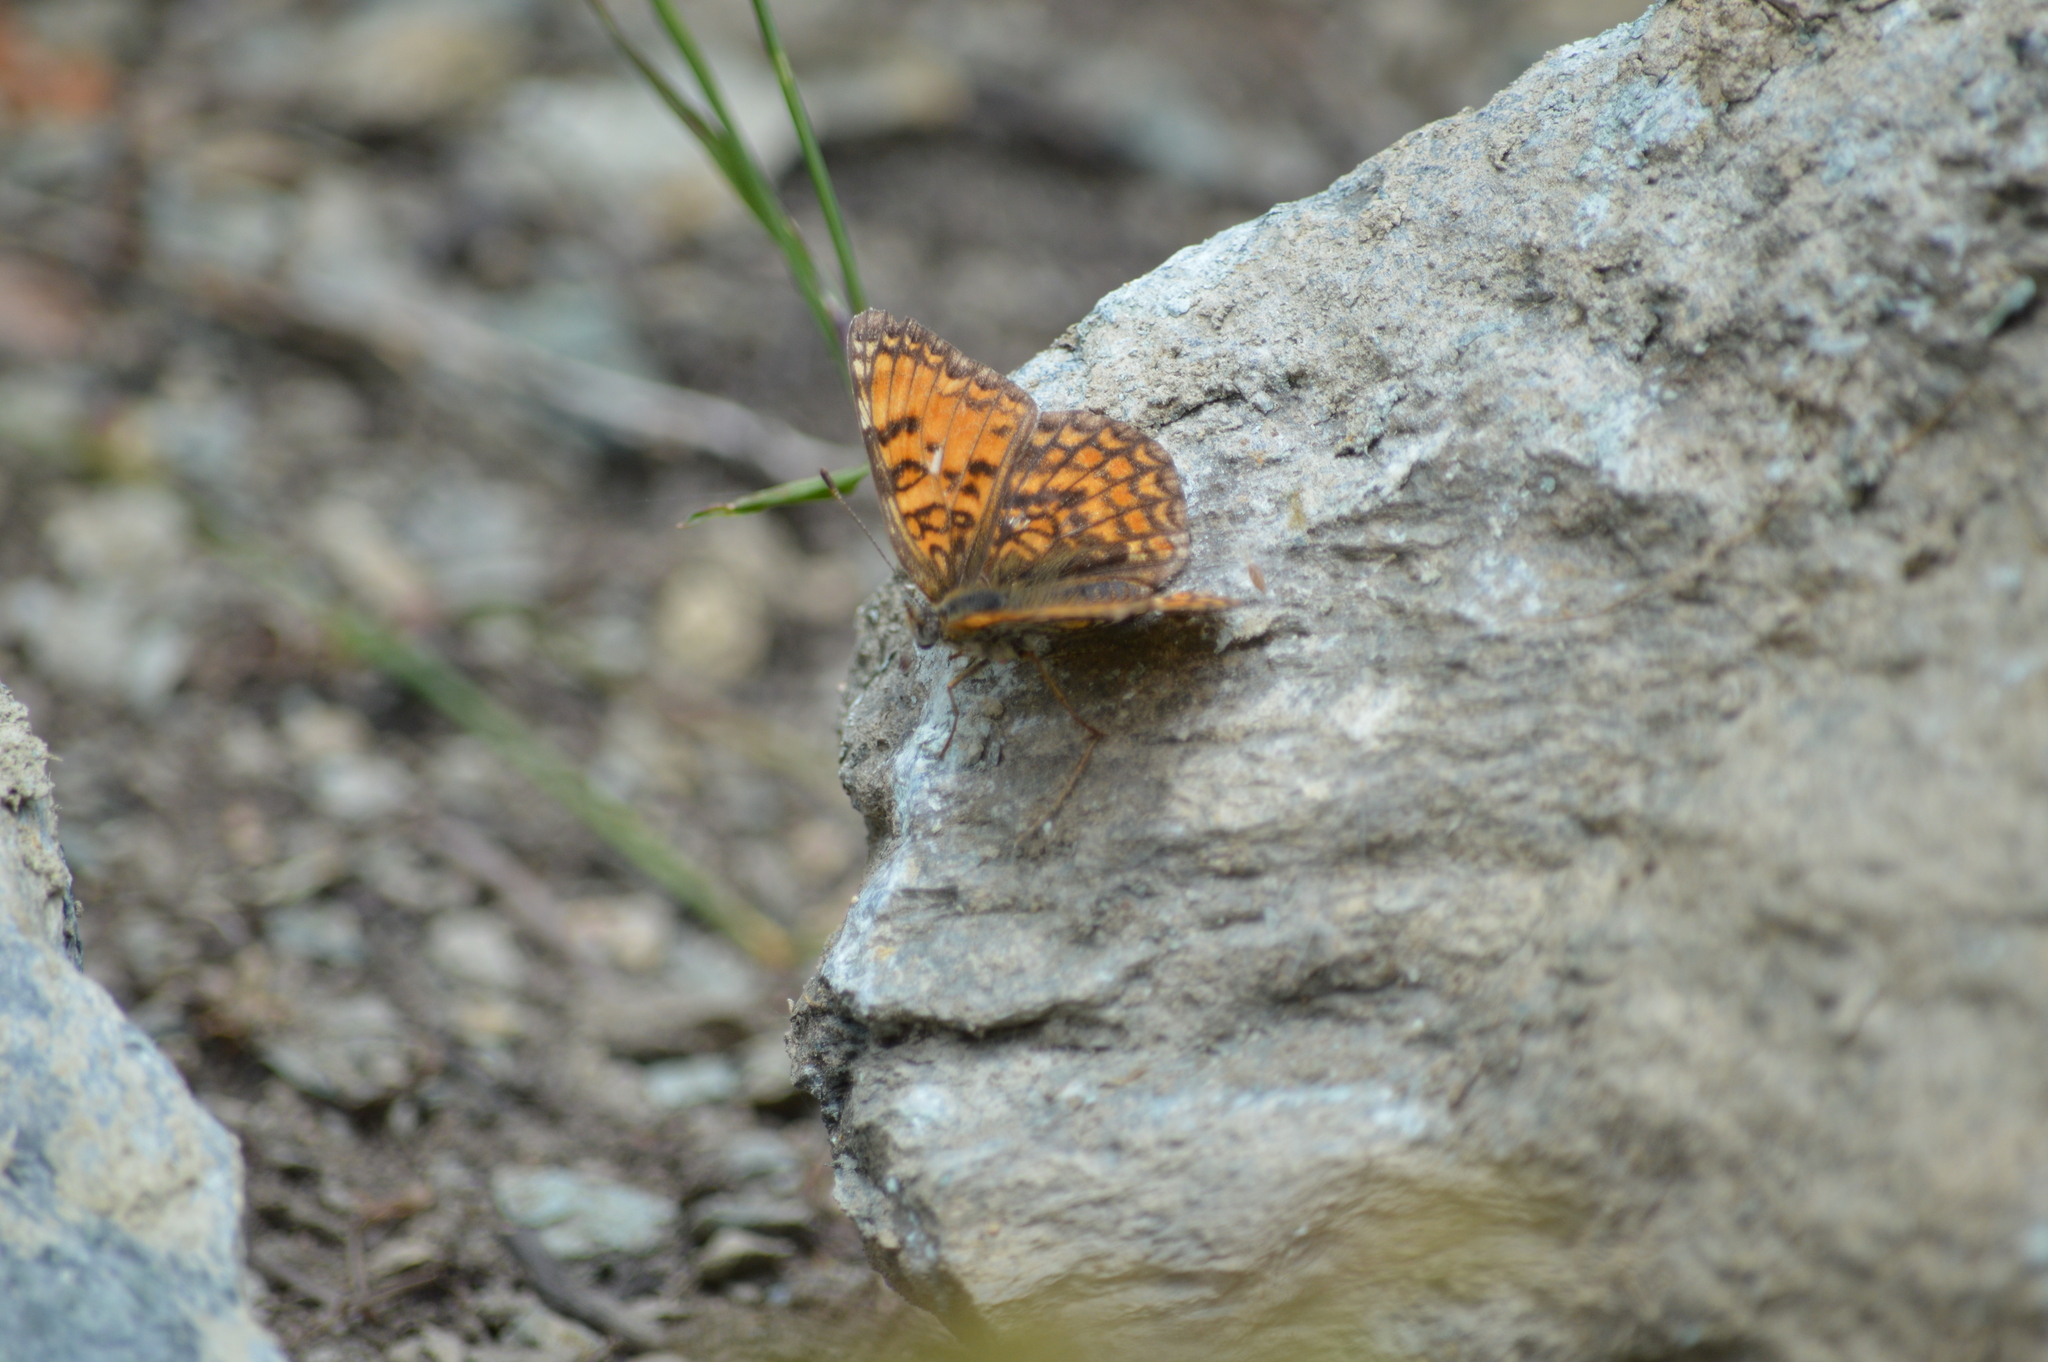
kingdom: Animalia
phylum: Arthropoda
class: Insecta
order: Lepidoptera
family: Nymphalidae
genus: Melitaea
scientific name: Melitaea phoebe
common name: Knapweed fritillary
